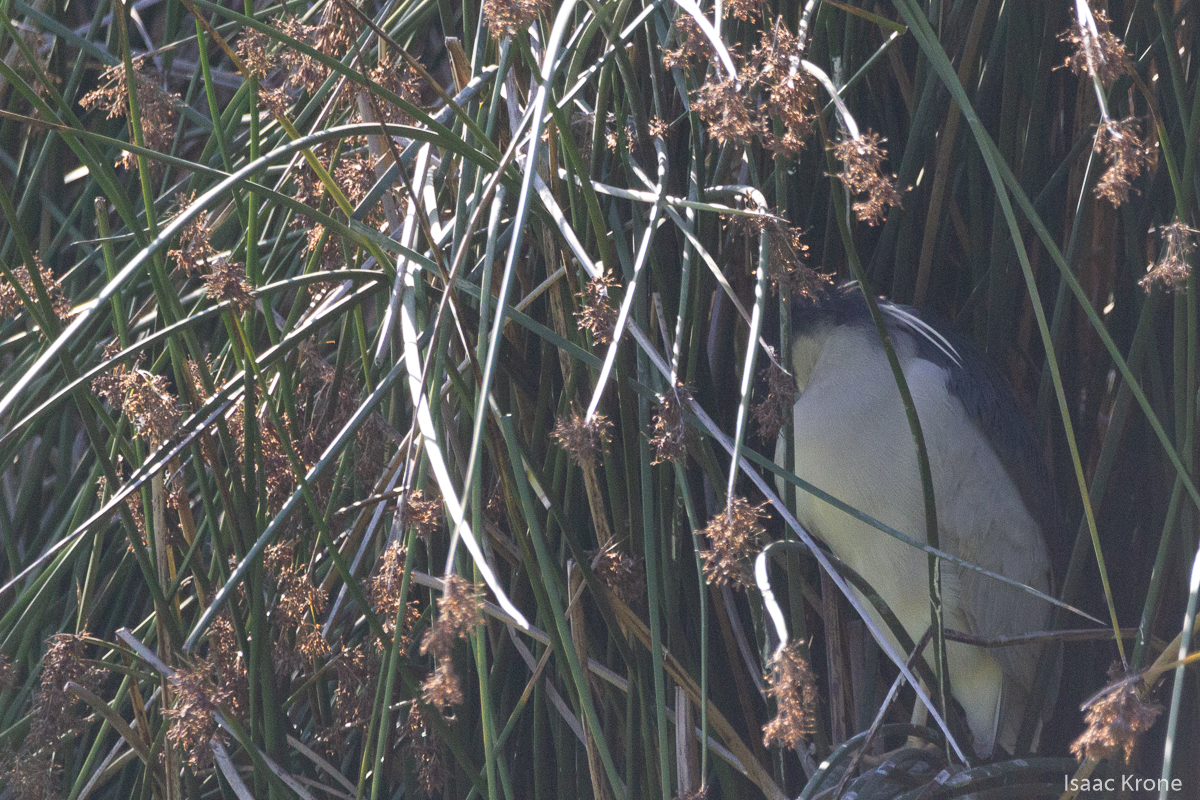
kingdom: Animalia
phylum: Chordata
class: Aves
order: Pelecaniformes
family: Ardeidae
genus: Nycticorax
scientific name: Nycticorax nycticorax
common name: Black-crowned night heron
